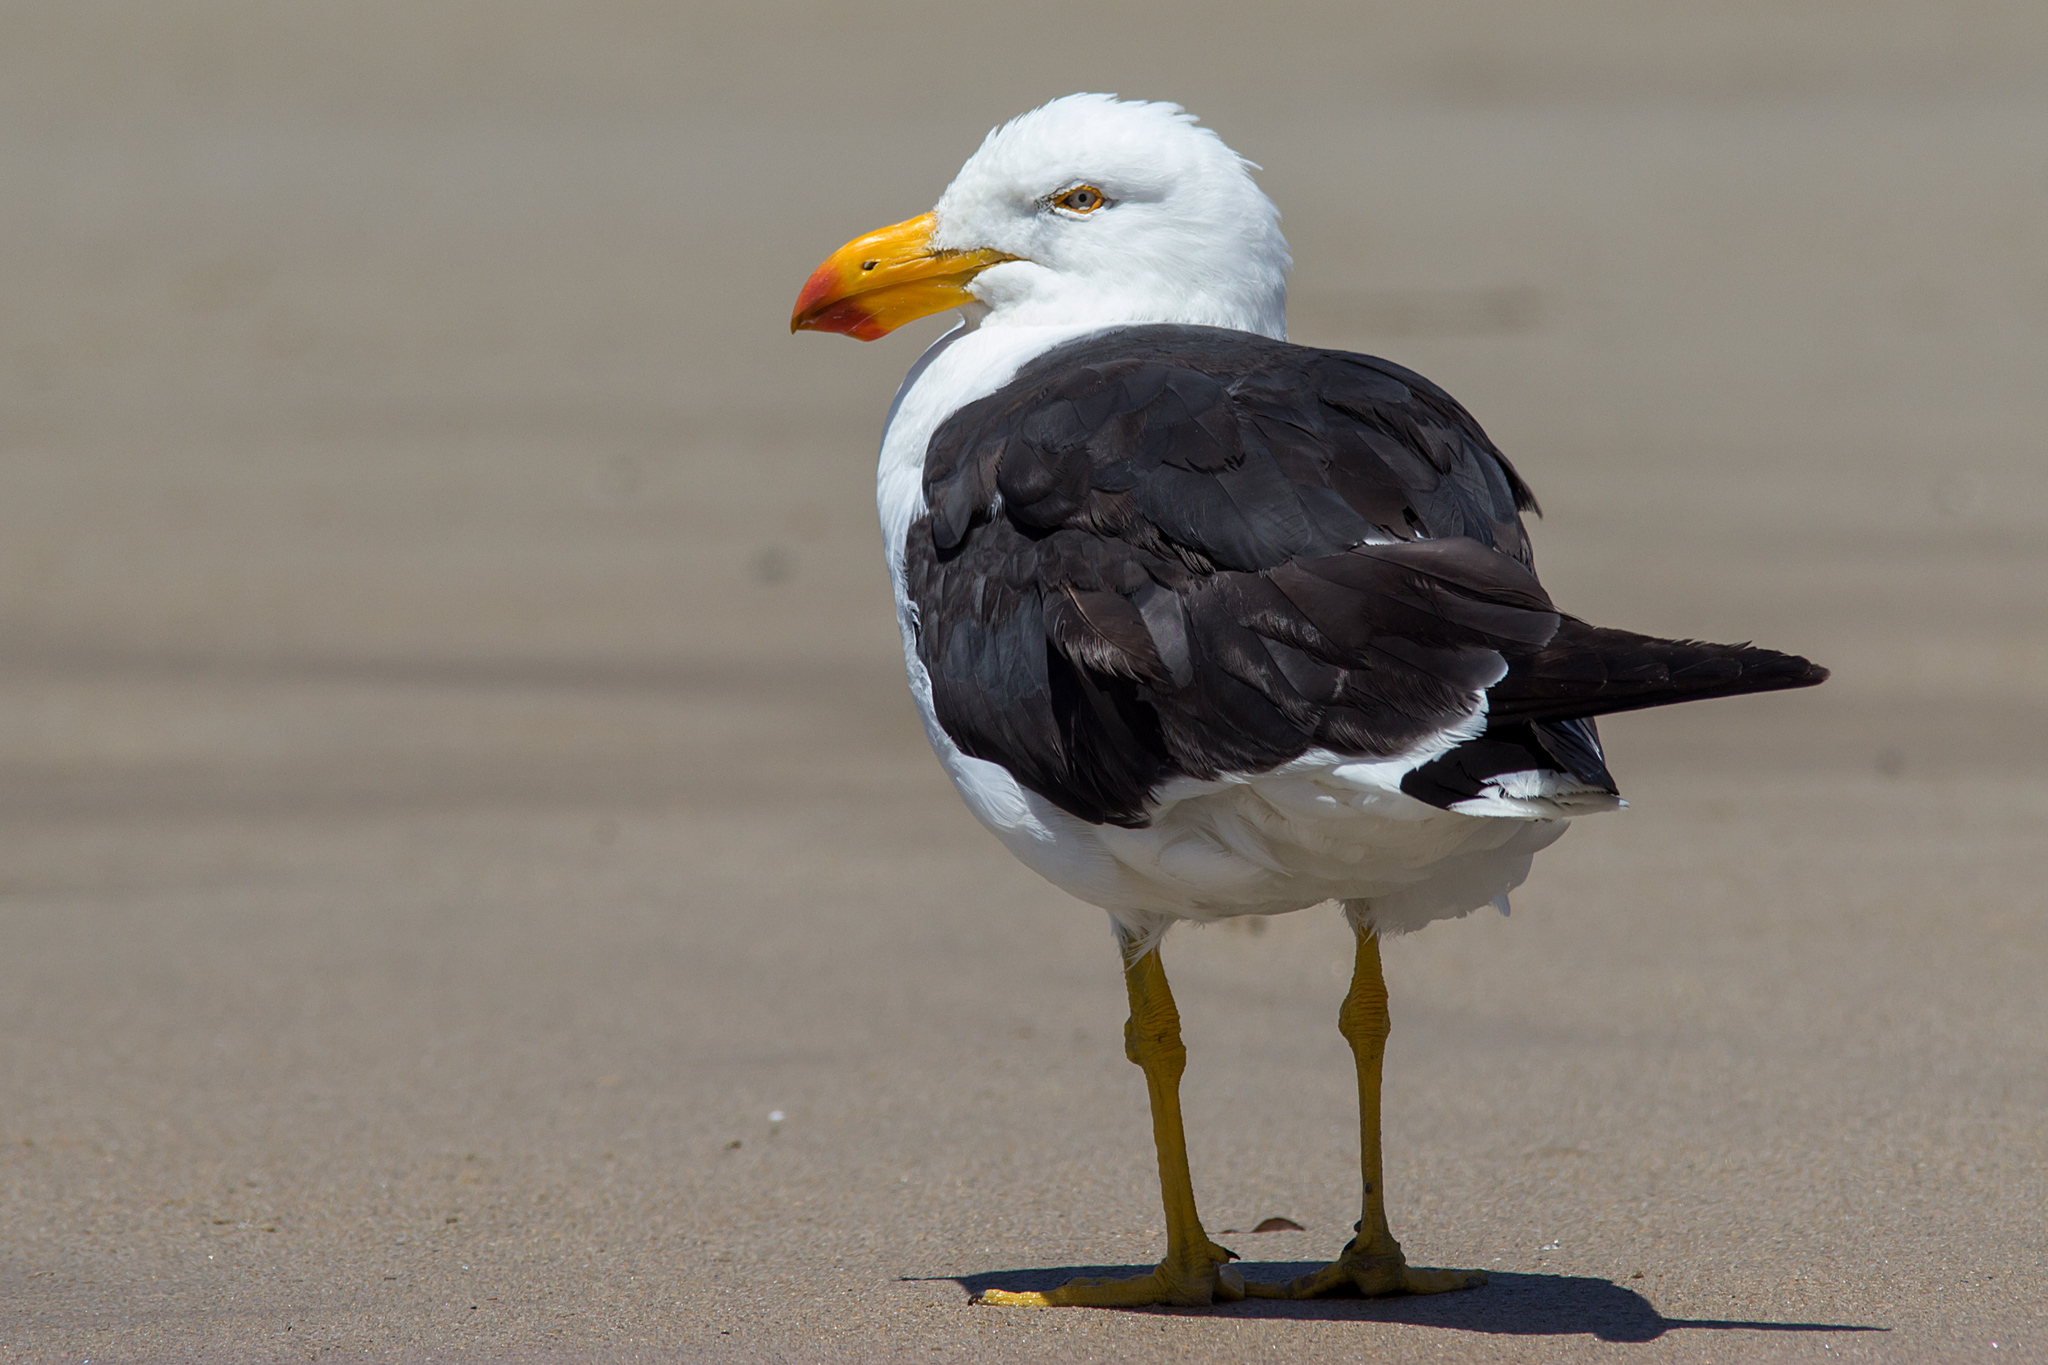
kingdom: Animalia
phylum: Chordata
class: Aves
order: Charadriiformes
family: Laridae
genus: Larus
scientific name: Larus pacificus
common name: Pacific gull
